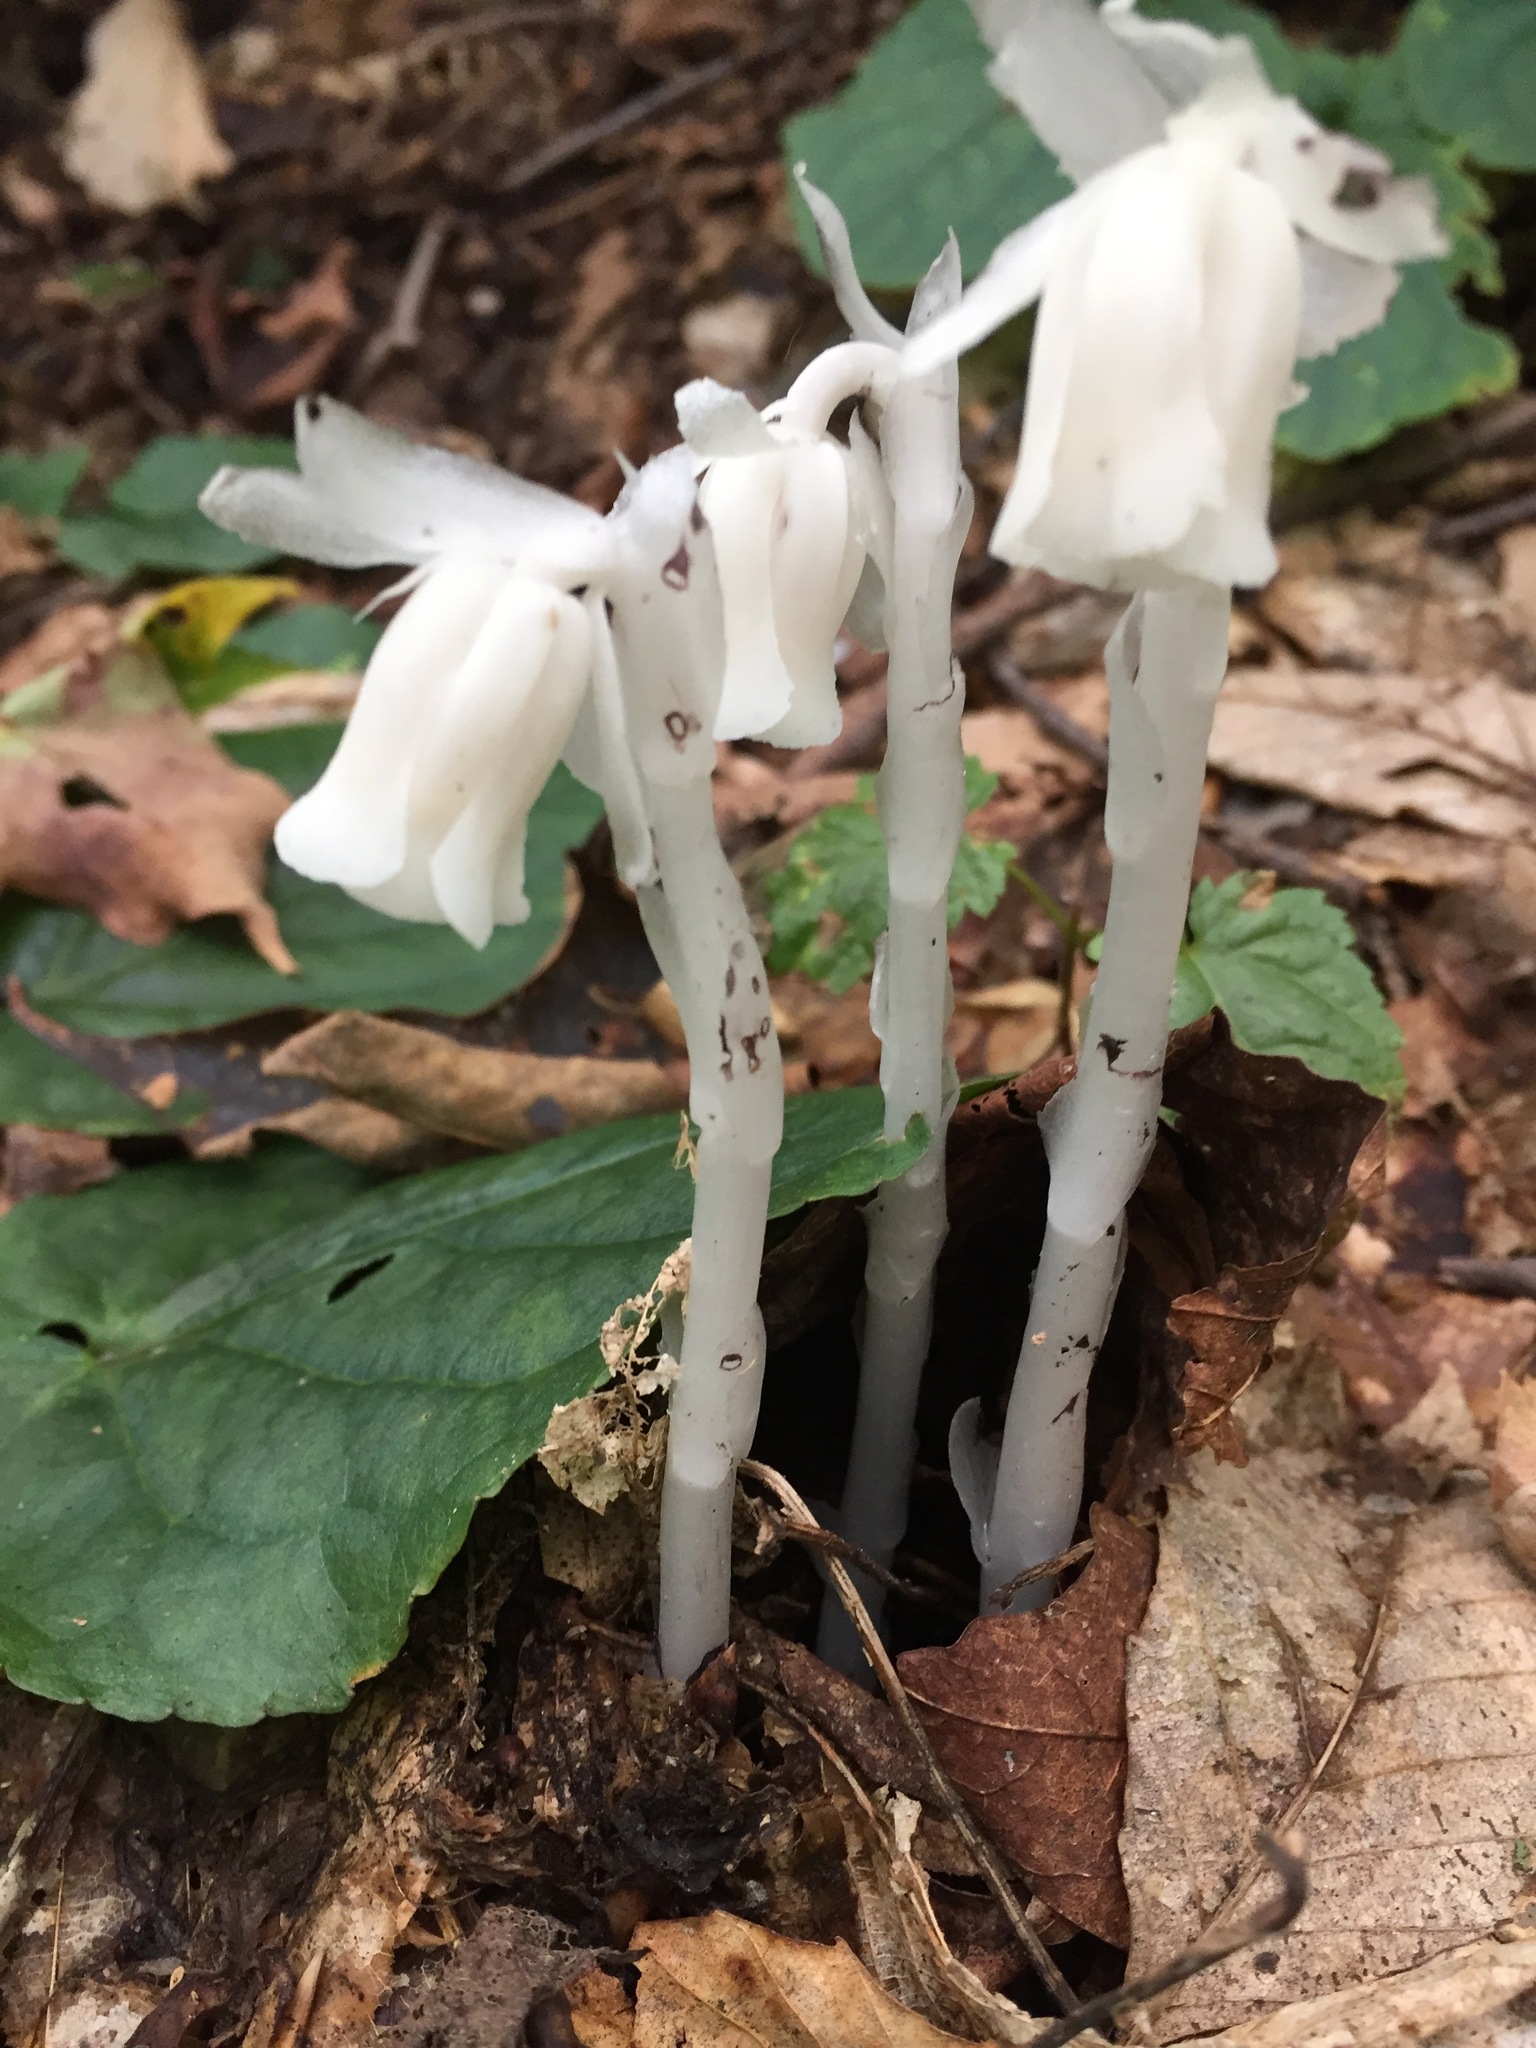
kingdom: Plantae
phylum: Tracheophyta
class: Magnoliopsida
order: Ericales
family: Ericaceae
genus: Monotropa
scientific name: Monotropa uniflora
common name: Convulsion root
